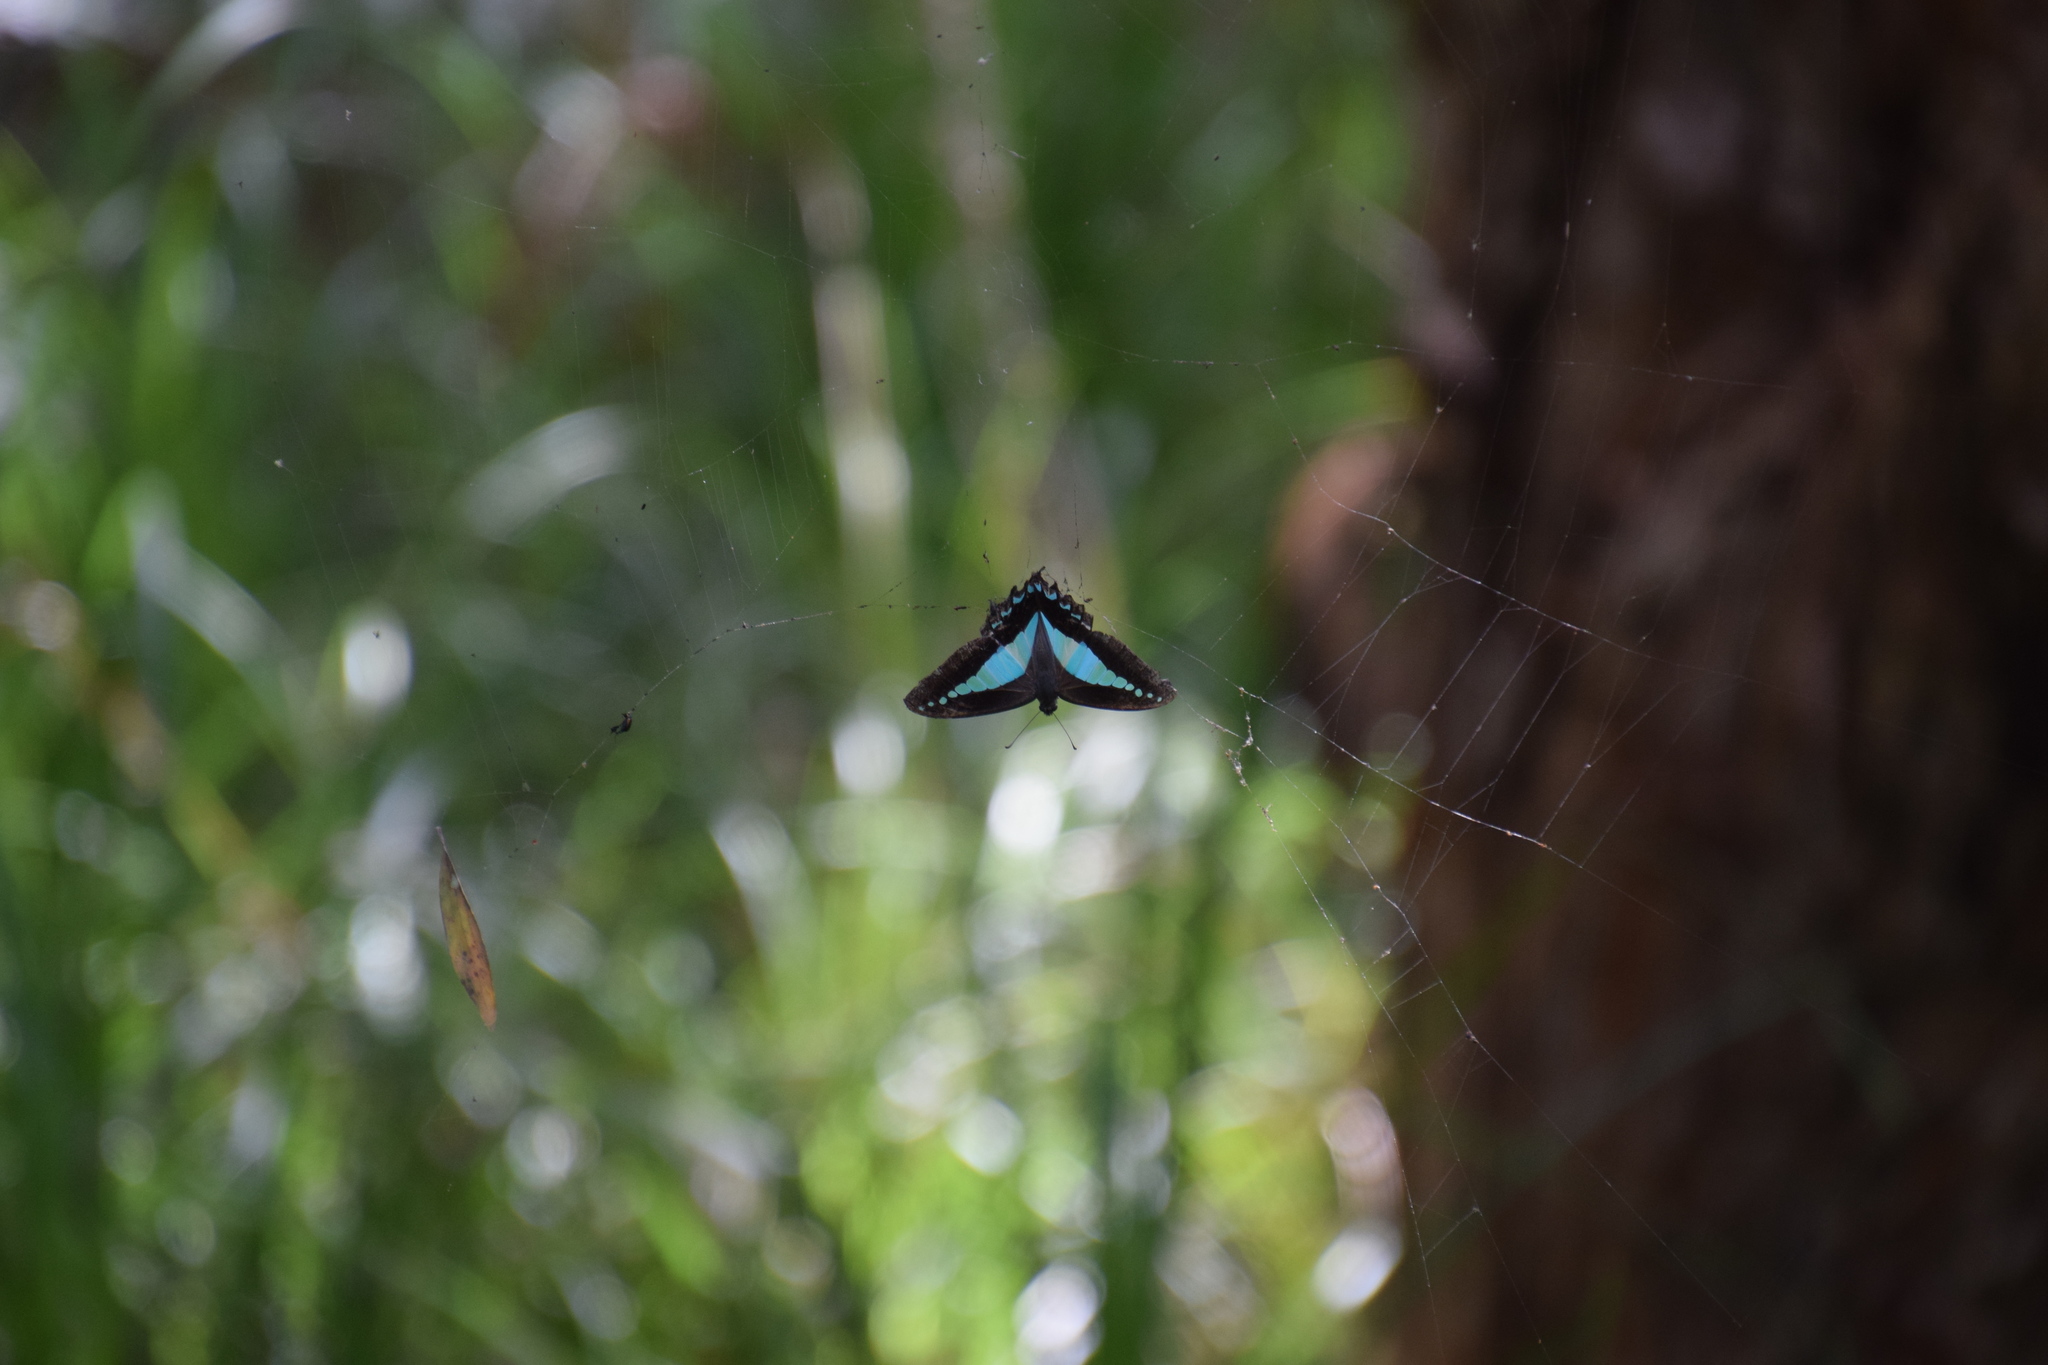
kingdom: Animalia
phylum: Arthropoda
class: Insecta
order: Lepidoptera
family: Papilionidae
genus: Graphium
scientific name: Graphium
